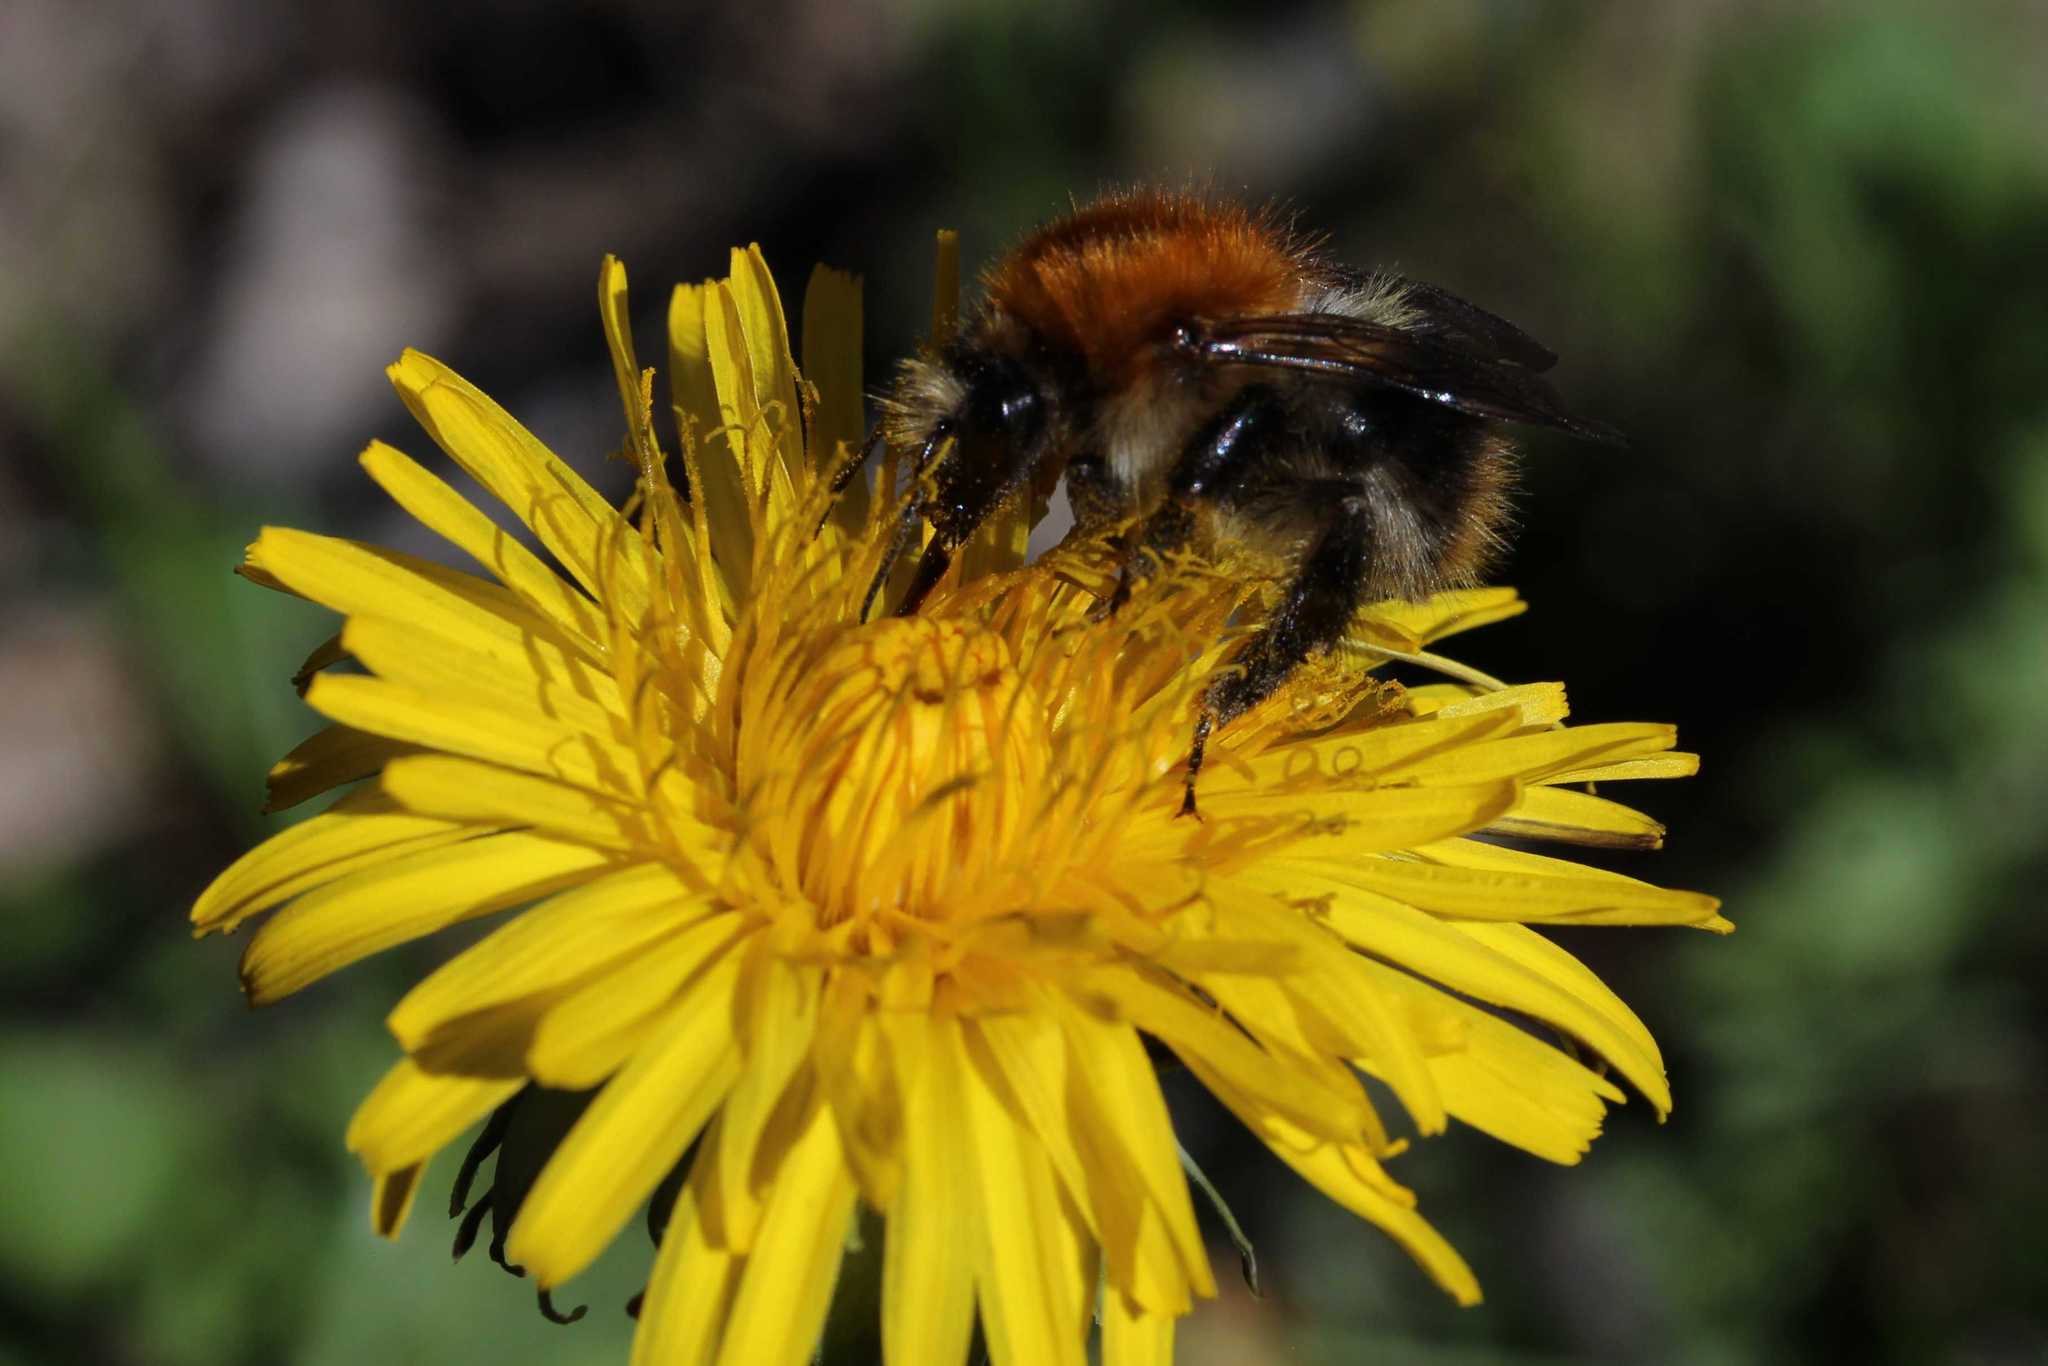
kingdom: Animalia
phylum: Arthropoda
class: Insecta
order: Hymenoptera
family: Apidae
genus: Bombus
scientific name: Bombus pascuorum
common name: Common carder bee
